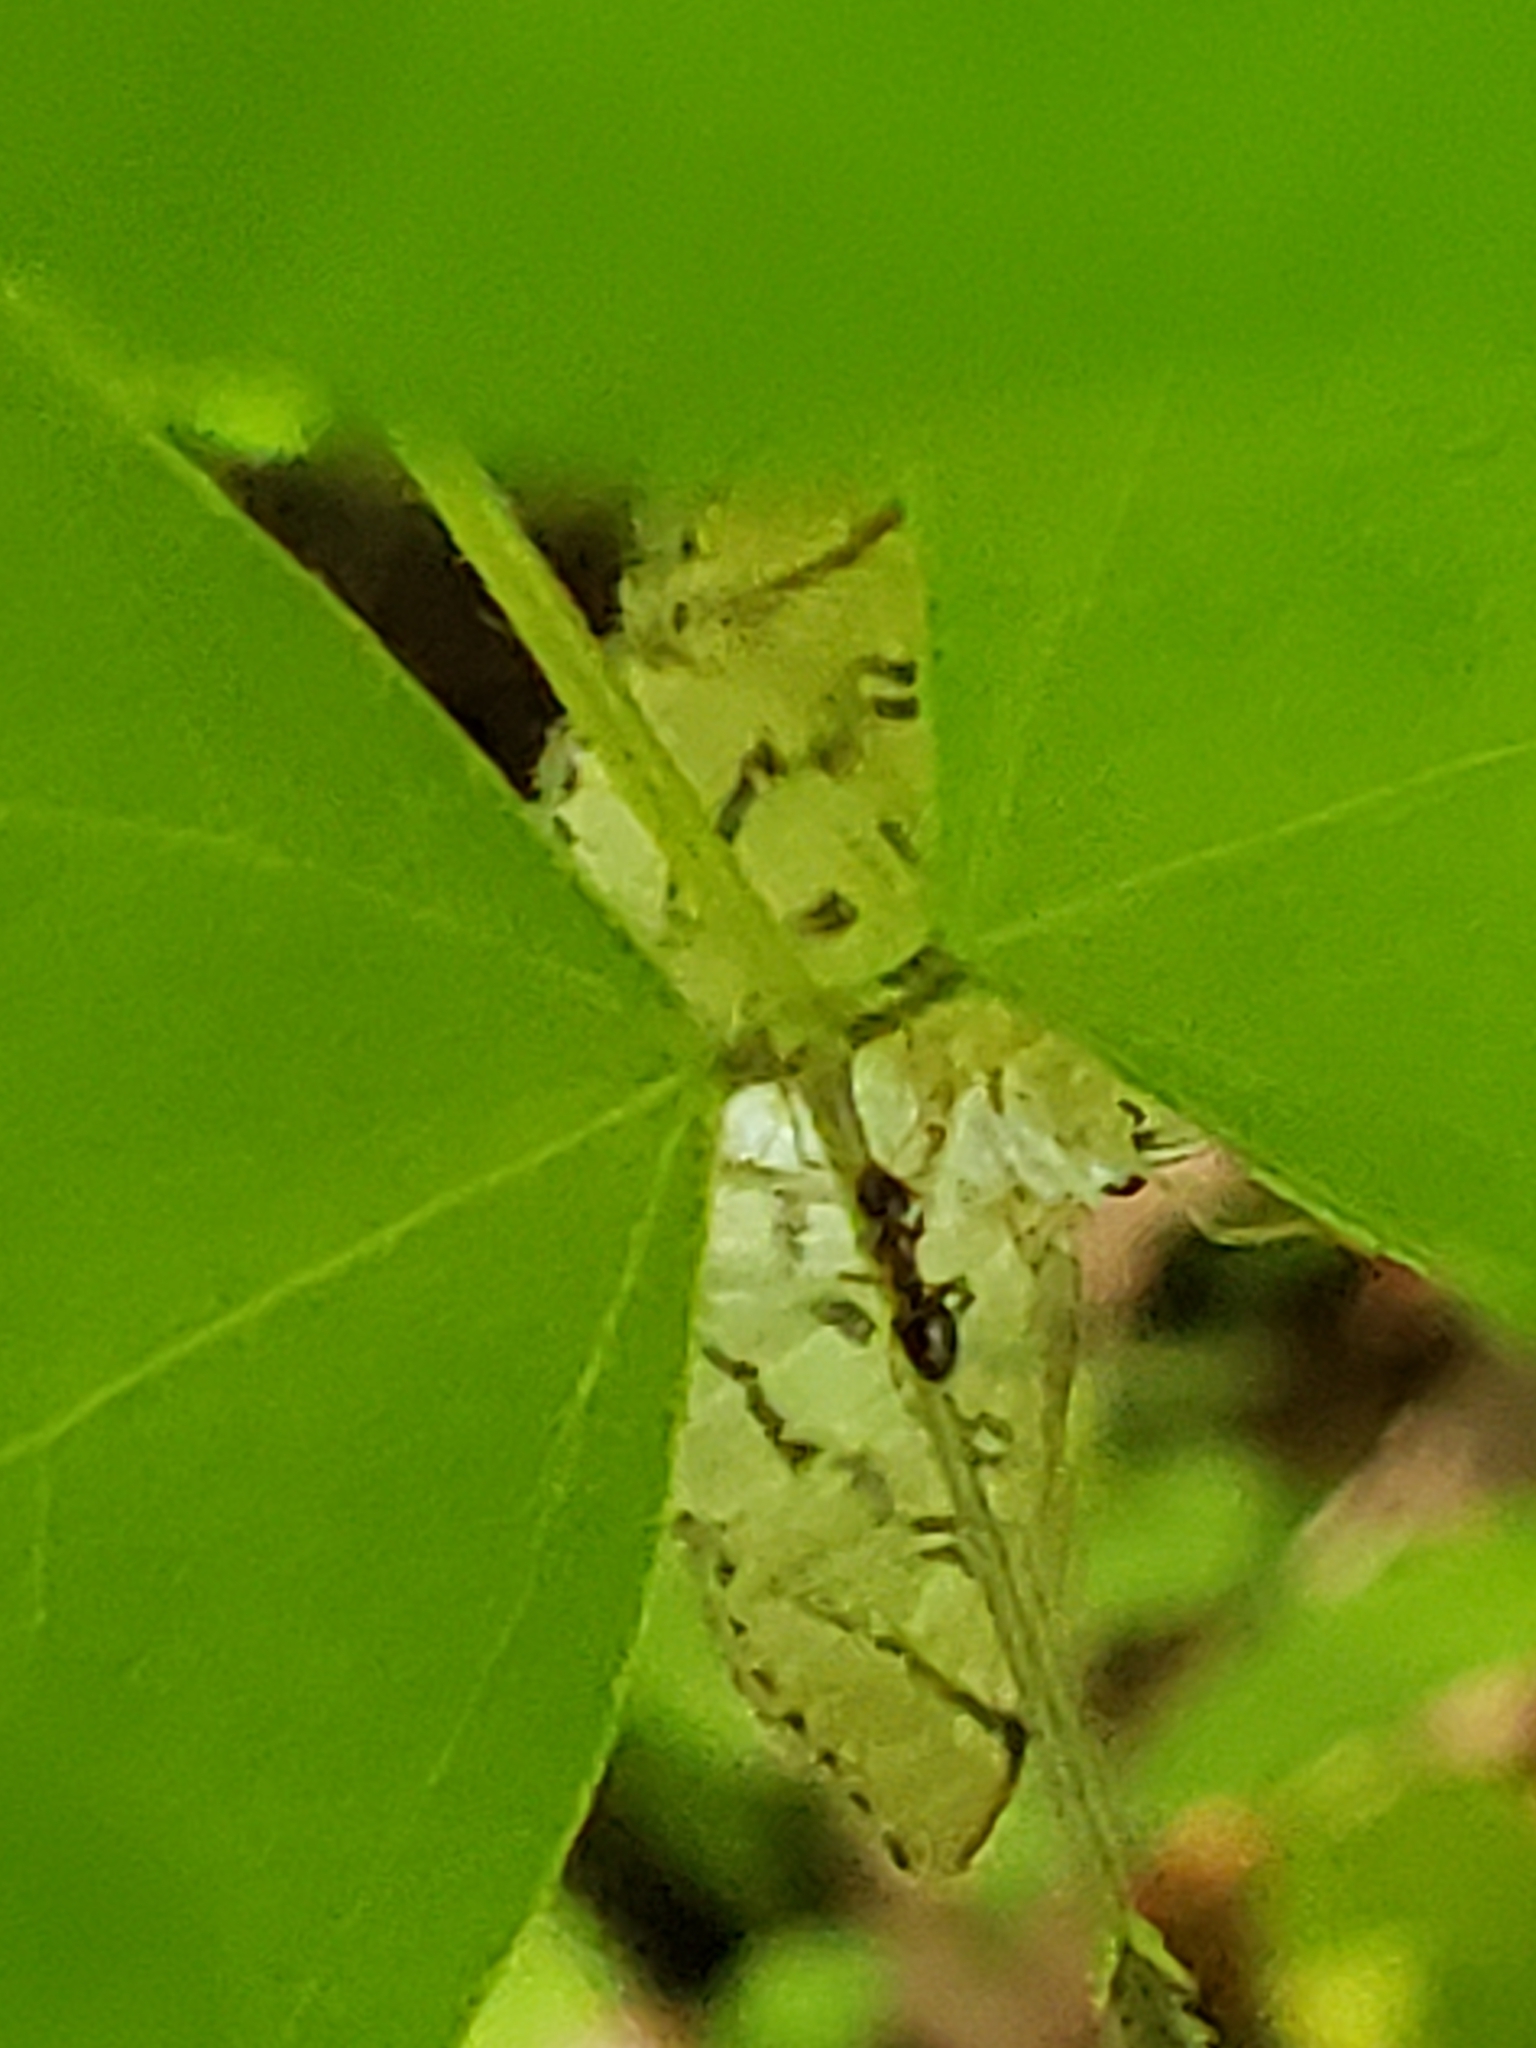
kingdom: Animalia
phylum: Arthropoda
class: Insecta
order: Lepidoptera
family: Crambidae
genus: Lamprosema
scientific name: Lamprosema Blepharomastix ranalis
